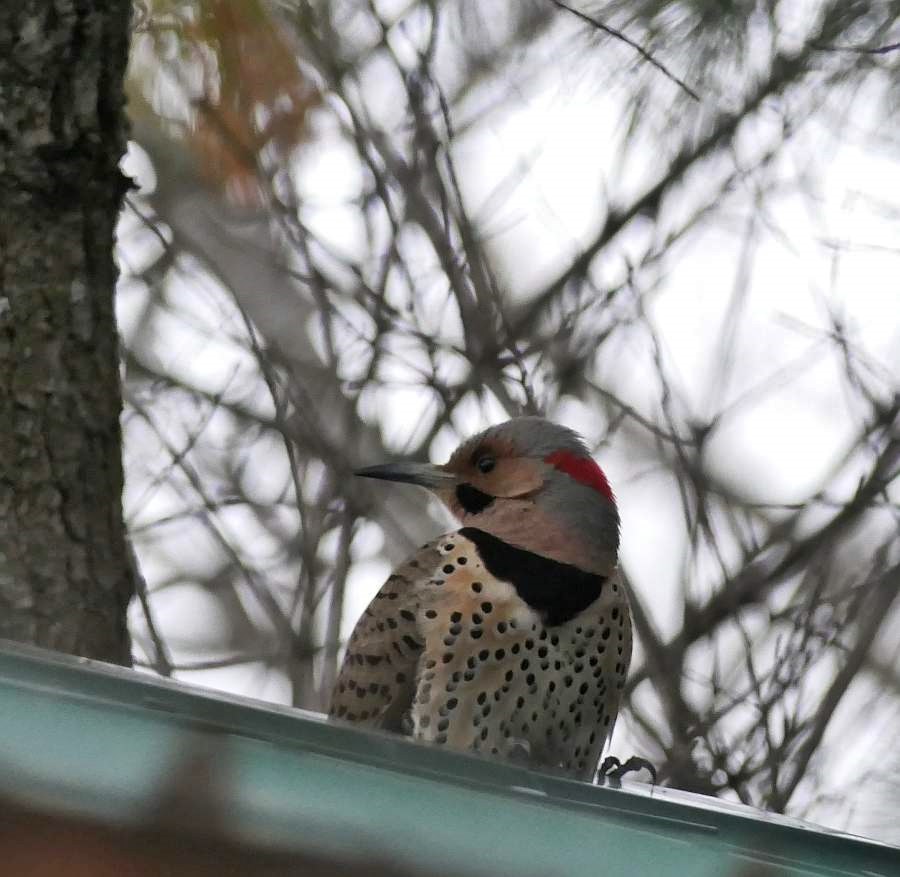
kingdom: Animalia
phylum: Chordata
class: Aves
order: Piciformes
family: Picidae
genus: Colaptes
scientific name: Colaptes auratus
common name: Northern flicker
